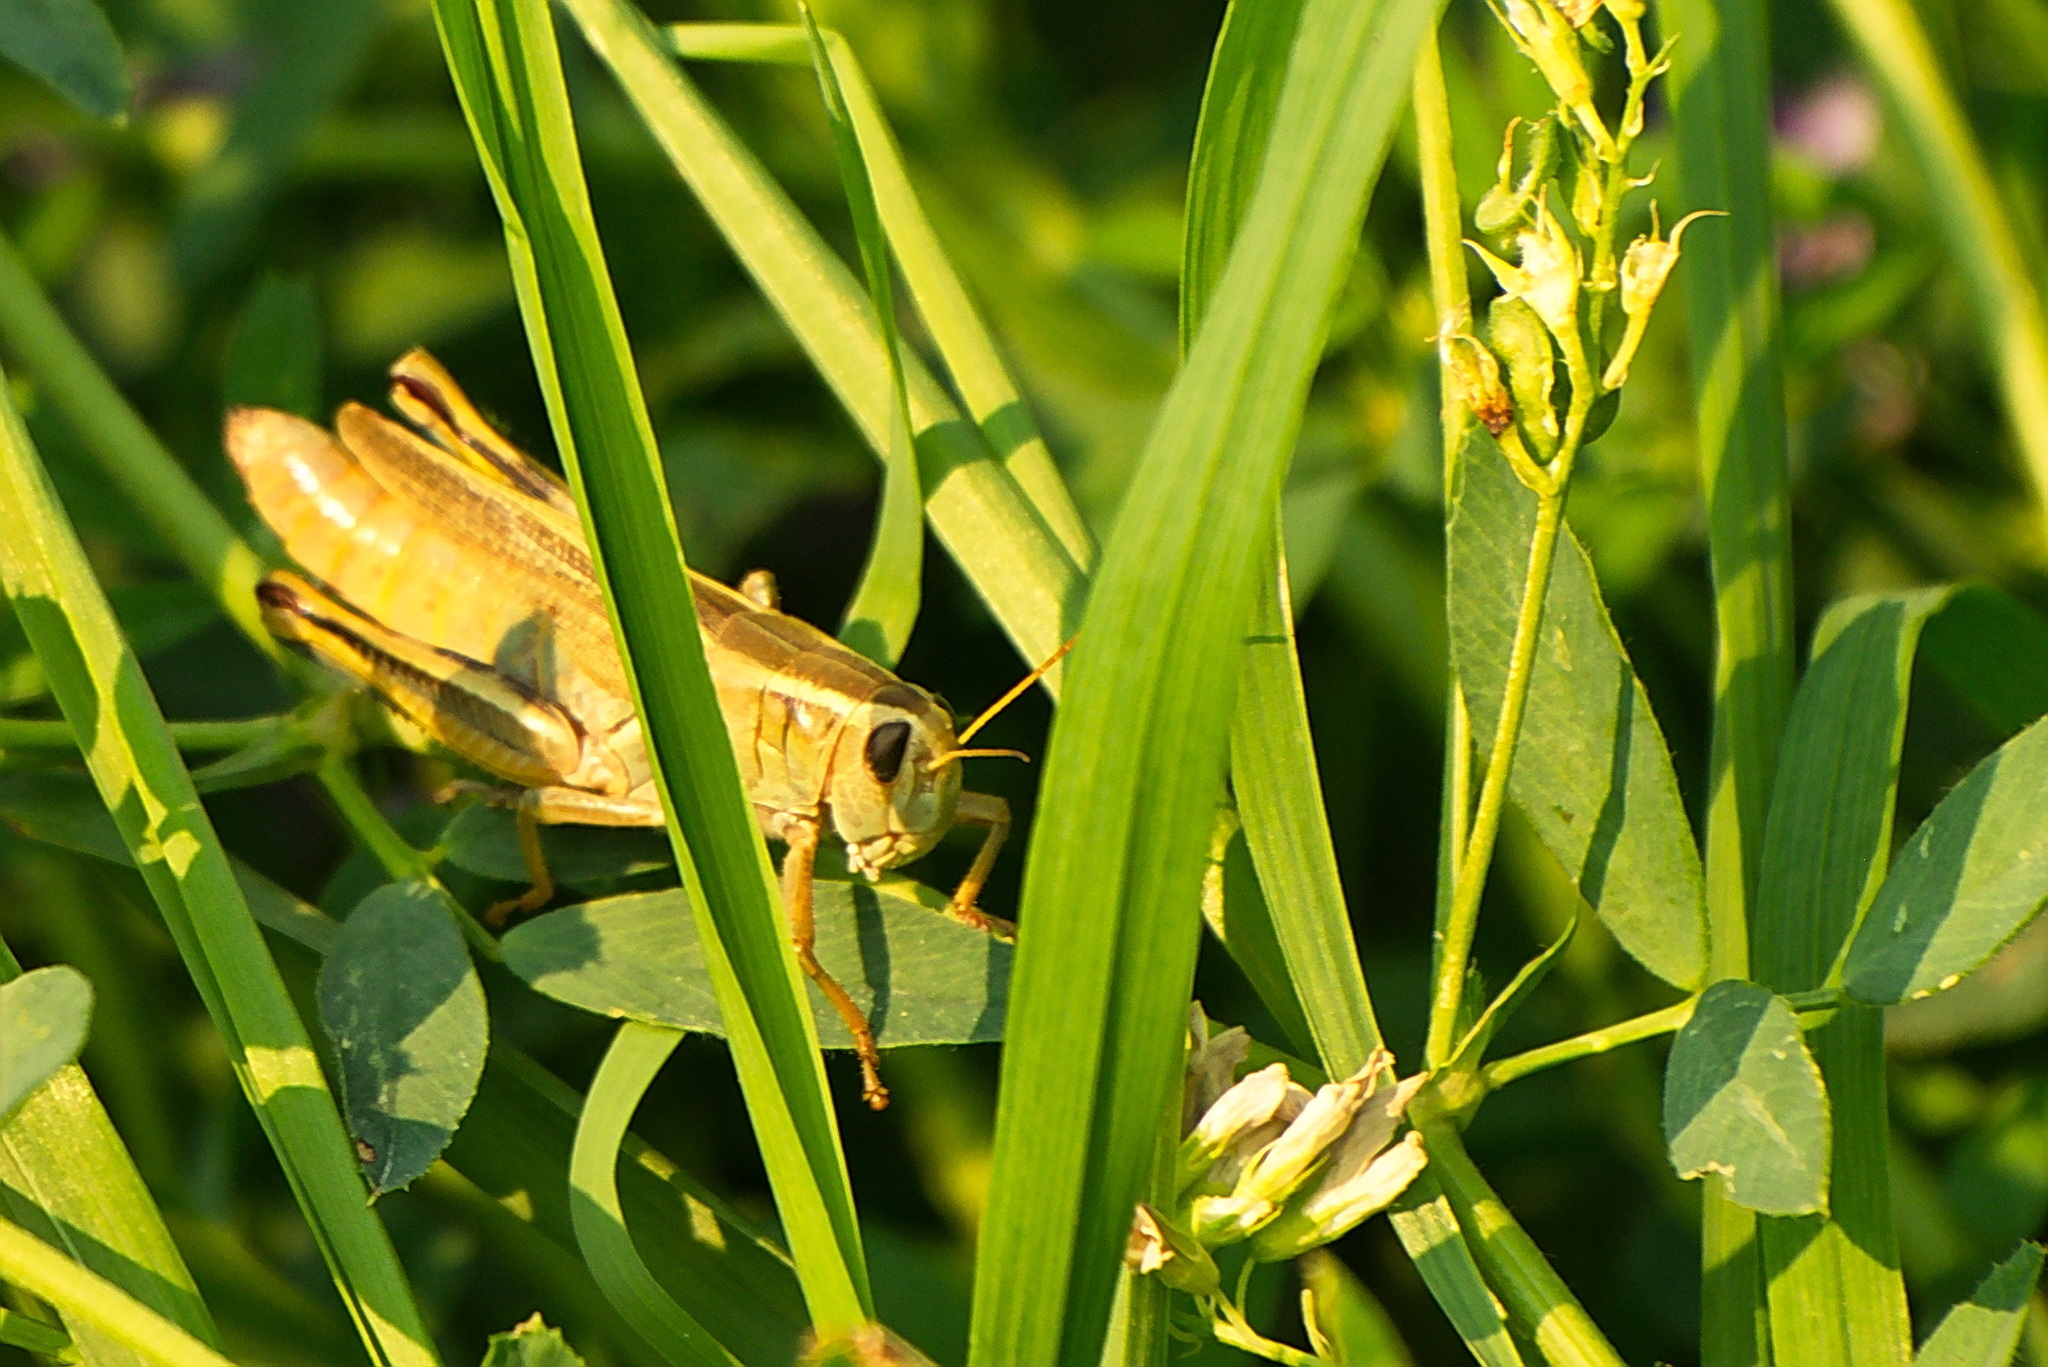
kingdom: Animalia
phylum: Arthropoda
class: Insecta
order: Orthoptera
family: Acrididae
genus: Melanoplus
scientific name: Melanoplus bivittatus
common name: Two-striped grasshopper
